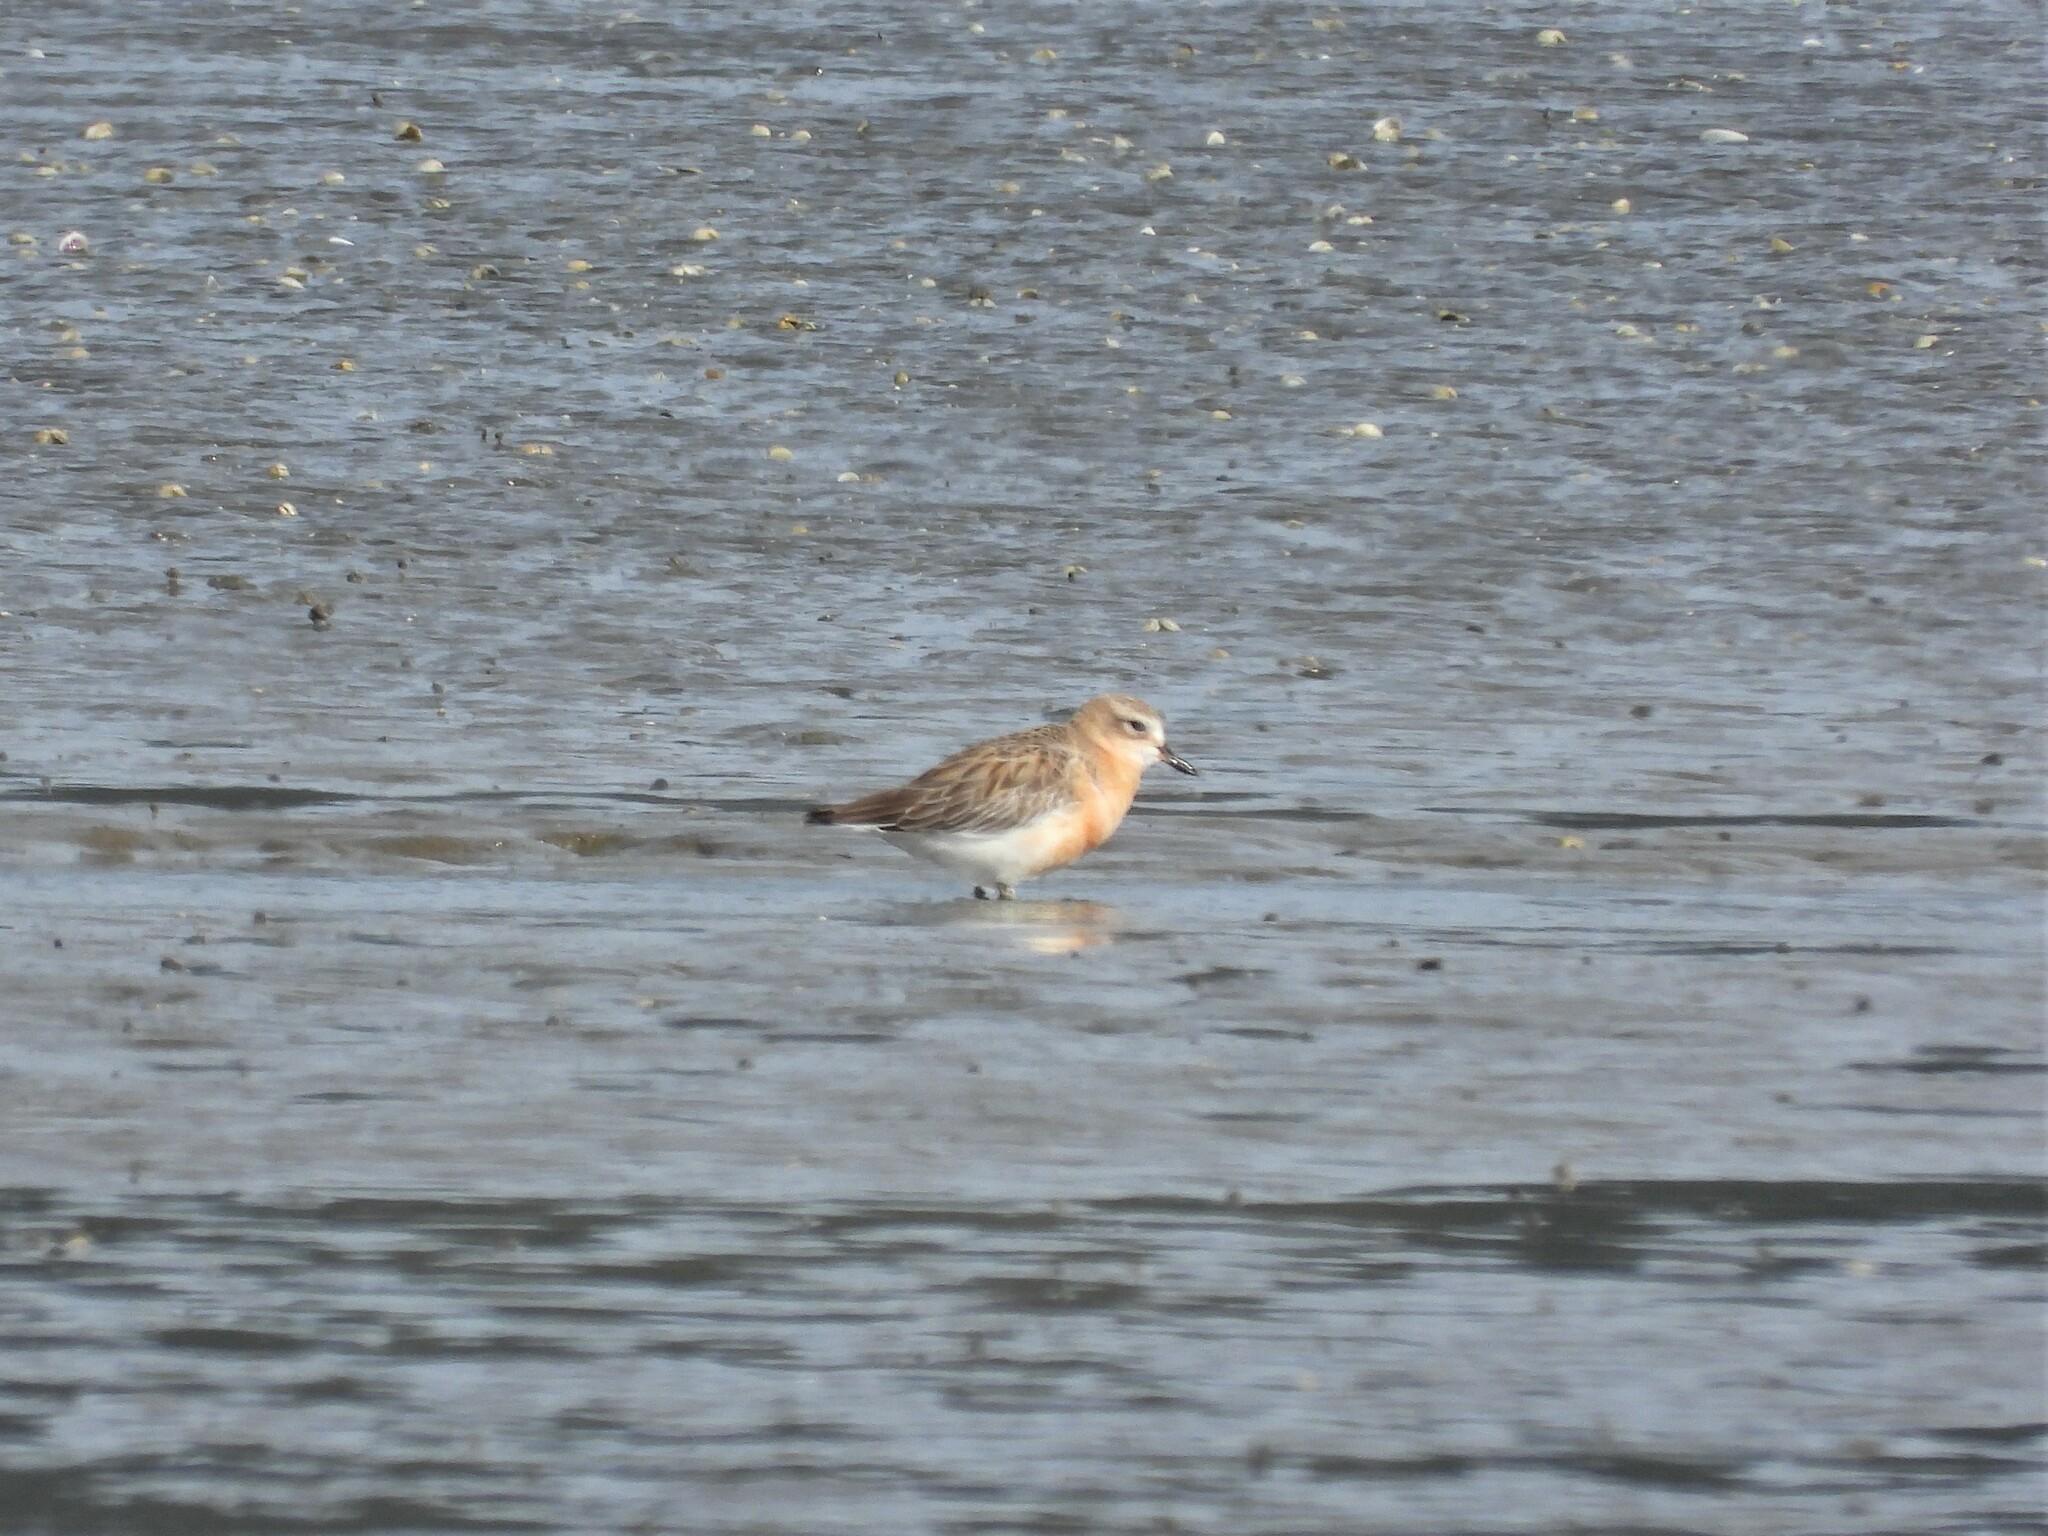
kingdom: Animalia
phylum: Chordata
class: Aves
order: Charadriiformes
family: Charadriidae
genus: Anarhynchus
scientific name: Anarhynchus
